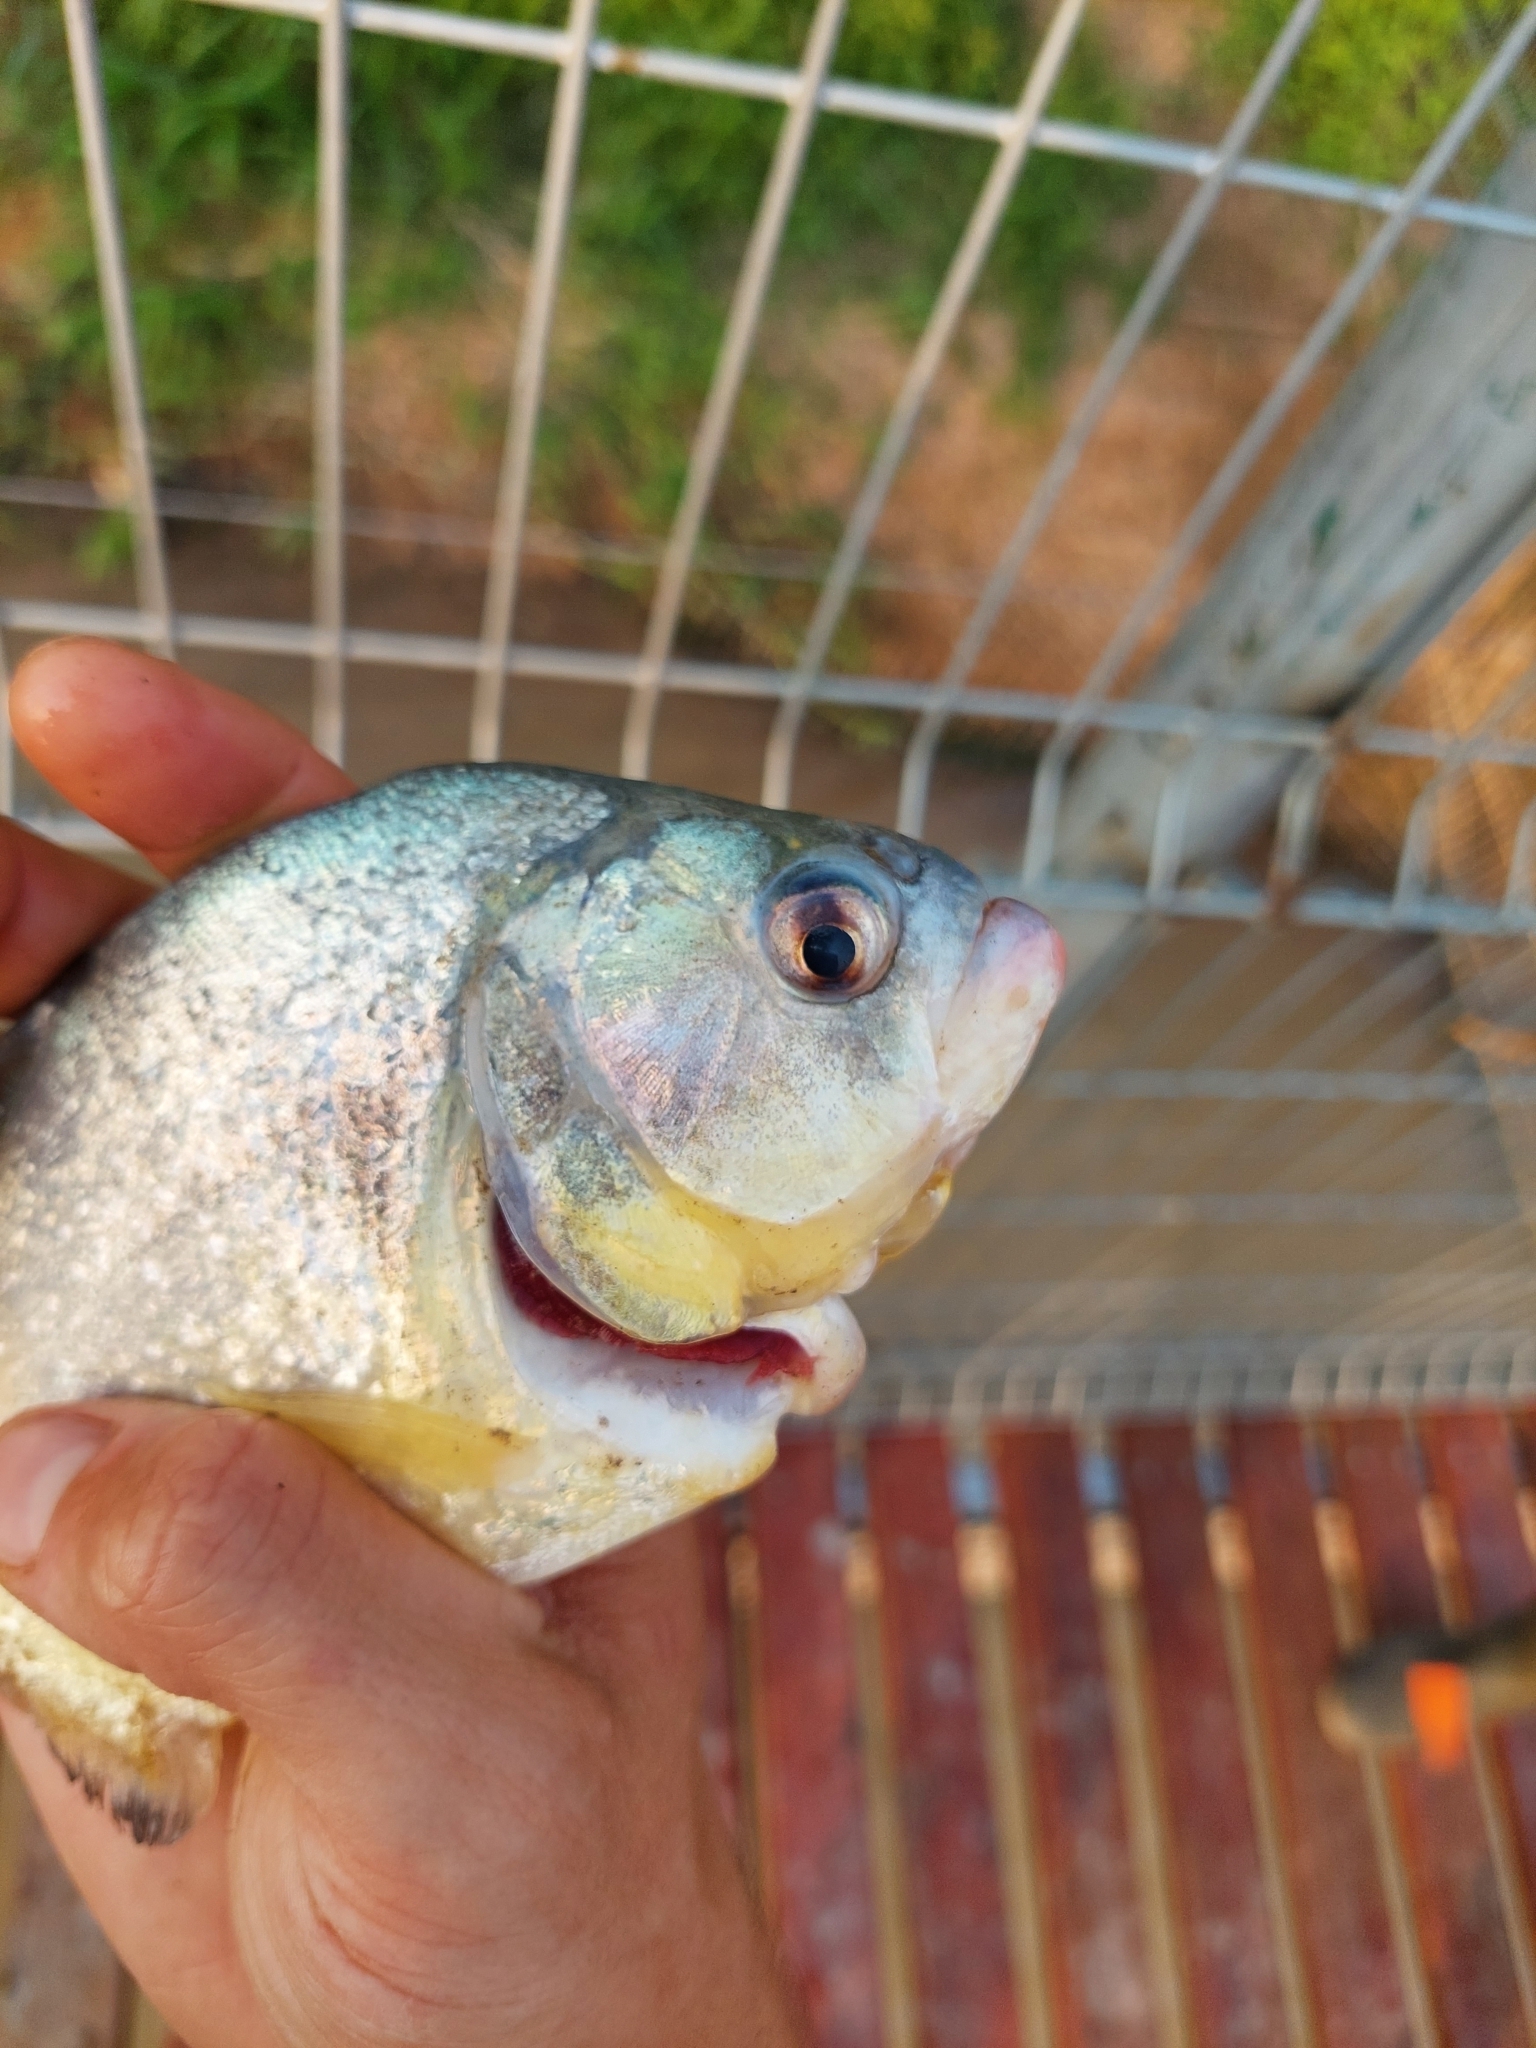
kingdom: Animalia
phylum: Chordata
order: Characiformes
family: Serrasalmidae
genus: Serrasalmus
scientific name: Serrasalmus maculatus
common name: Speckled piranha
